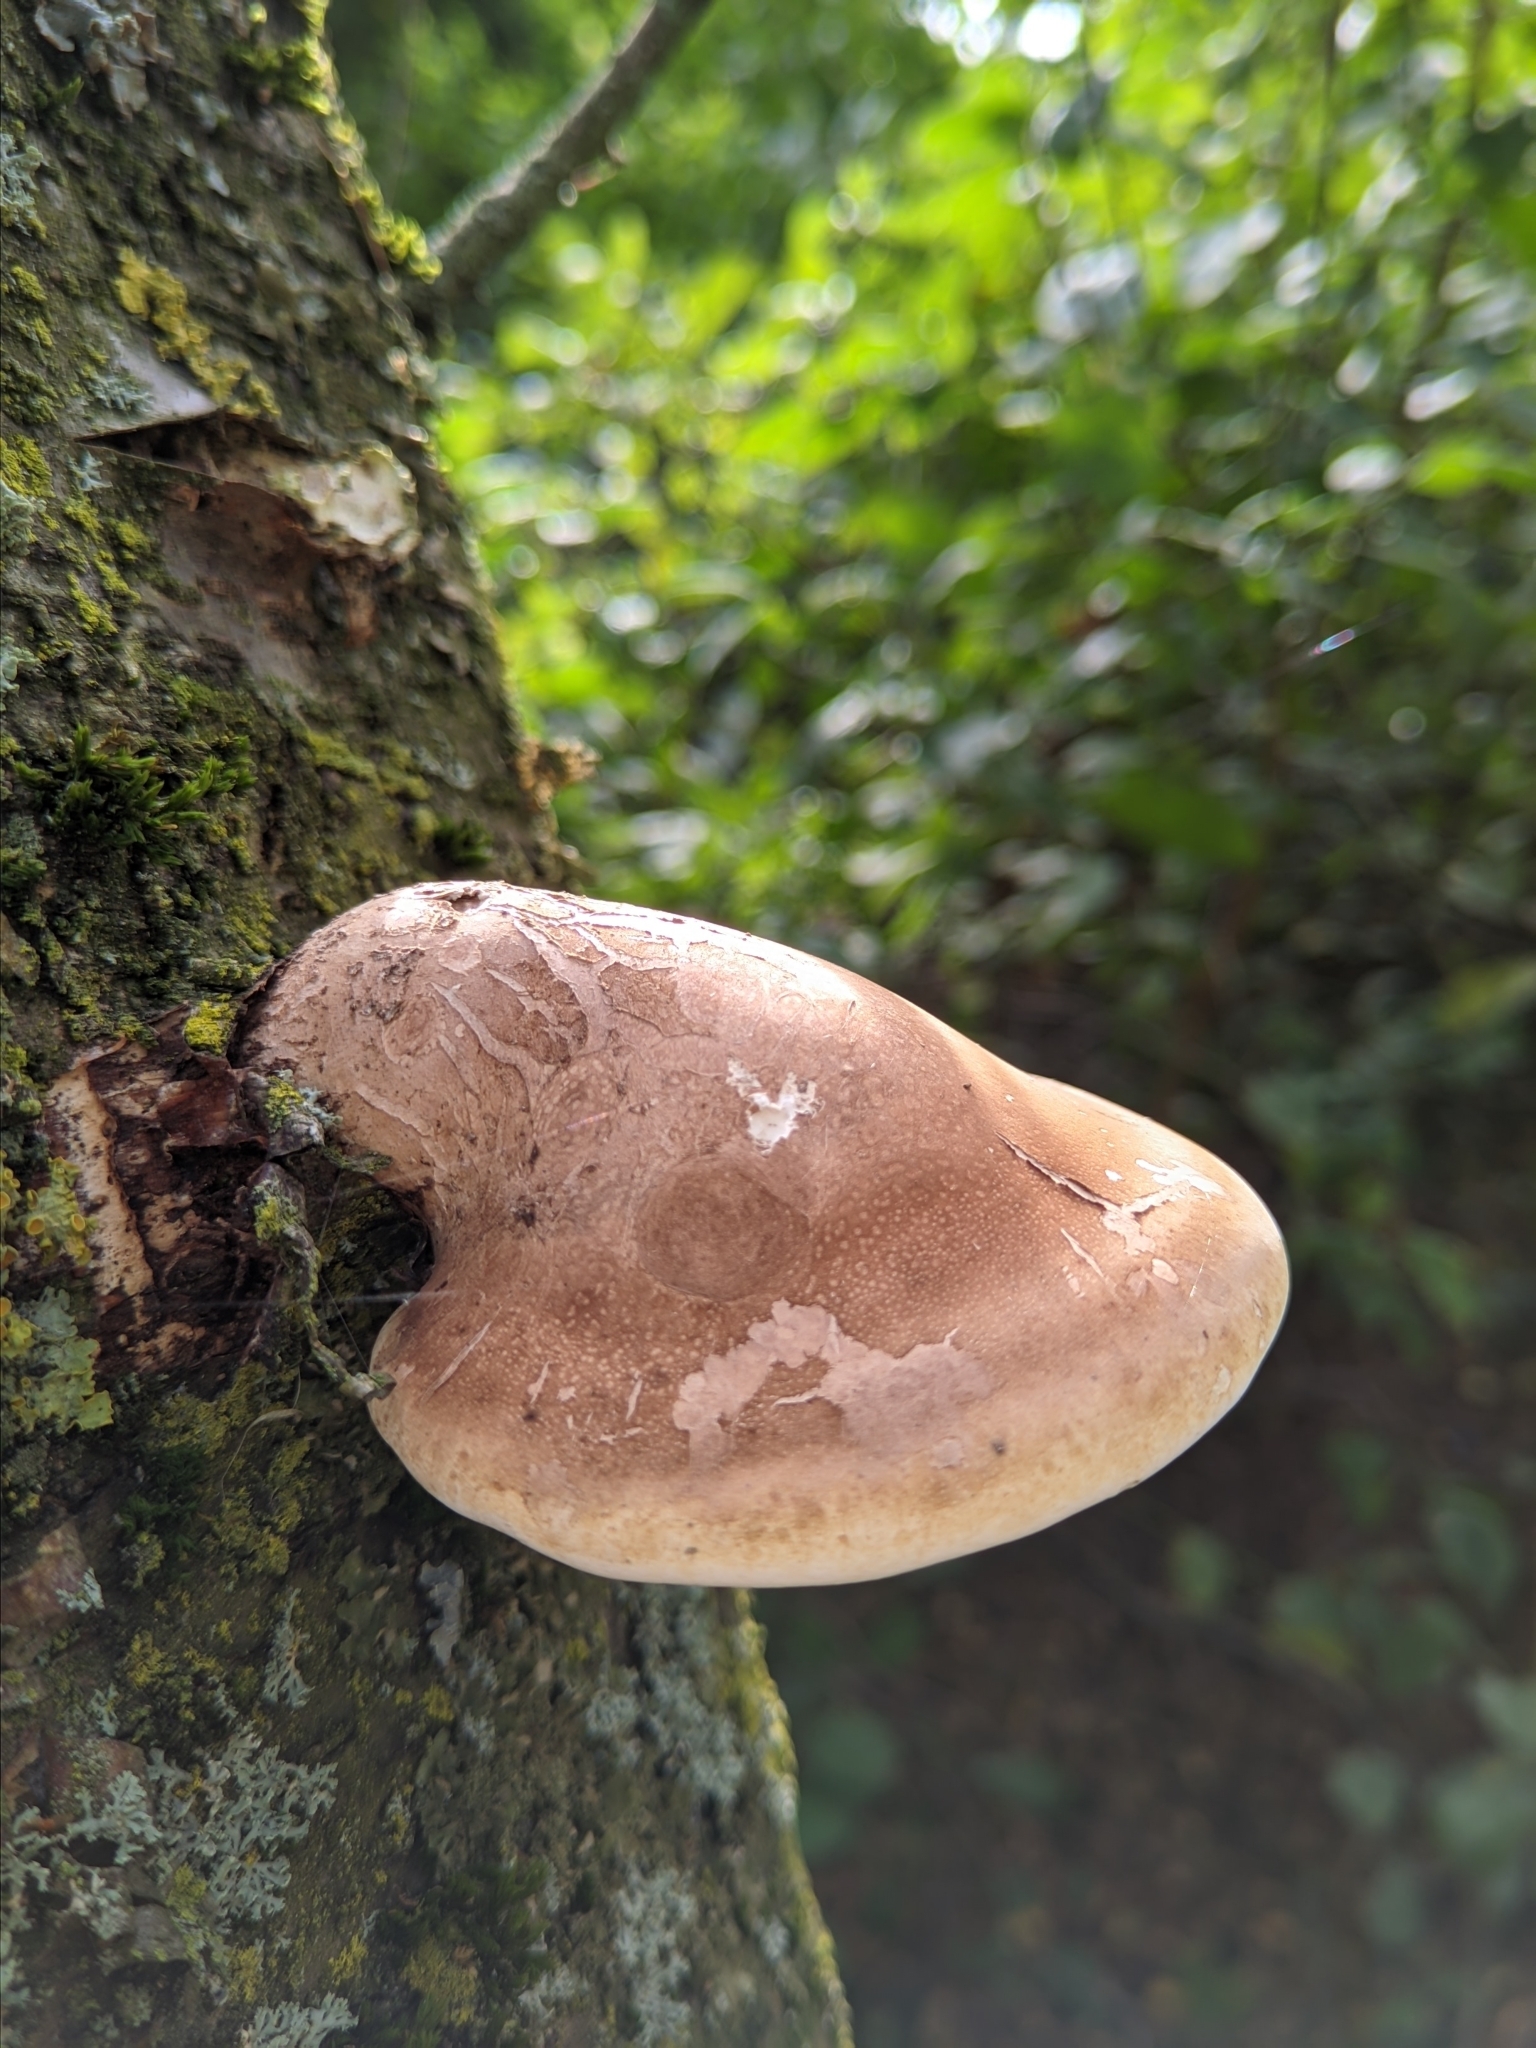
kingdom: Fungi
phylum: Basidiomycota
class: Agaricomycetes
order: Polyporales
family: Fomitopsidaceae
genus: Fomitopsis
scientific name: Fomitopsis betulina
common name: Birch polypore
